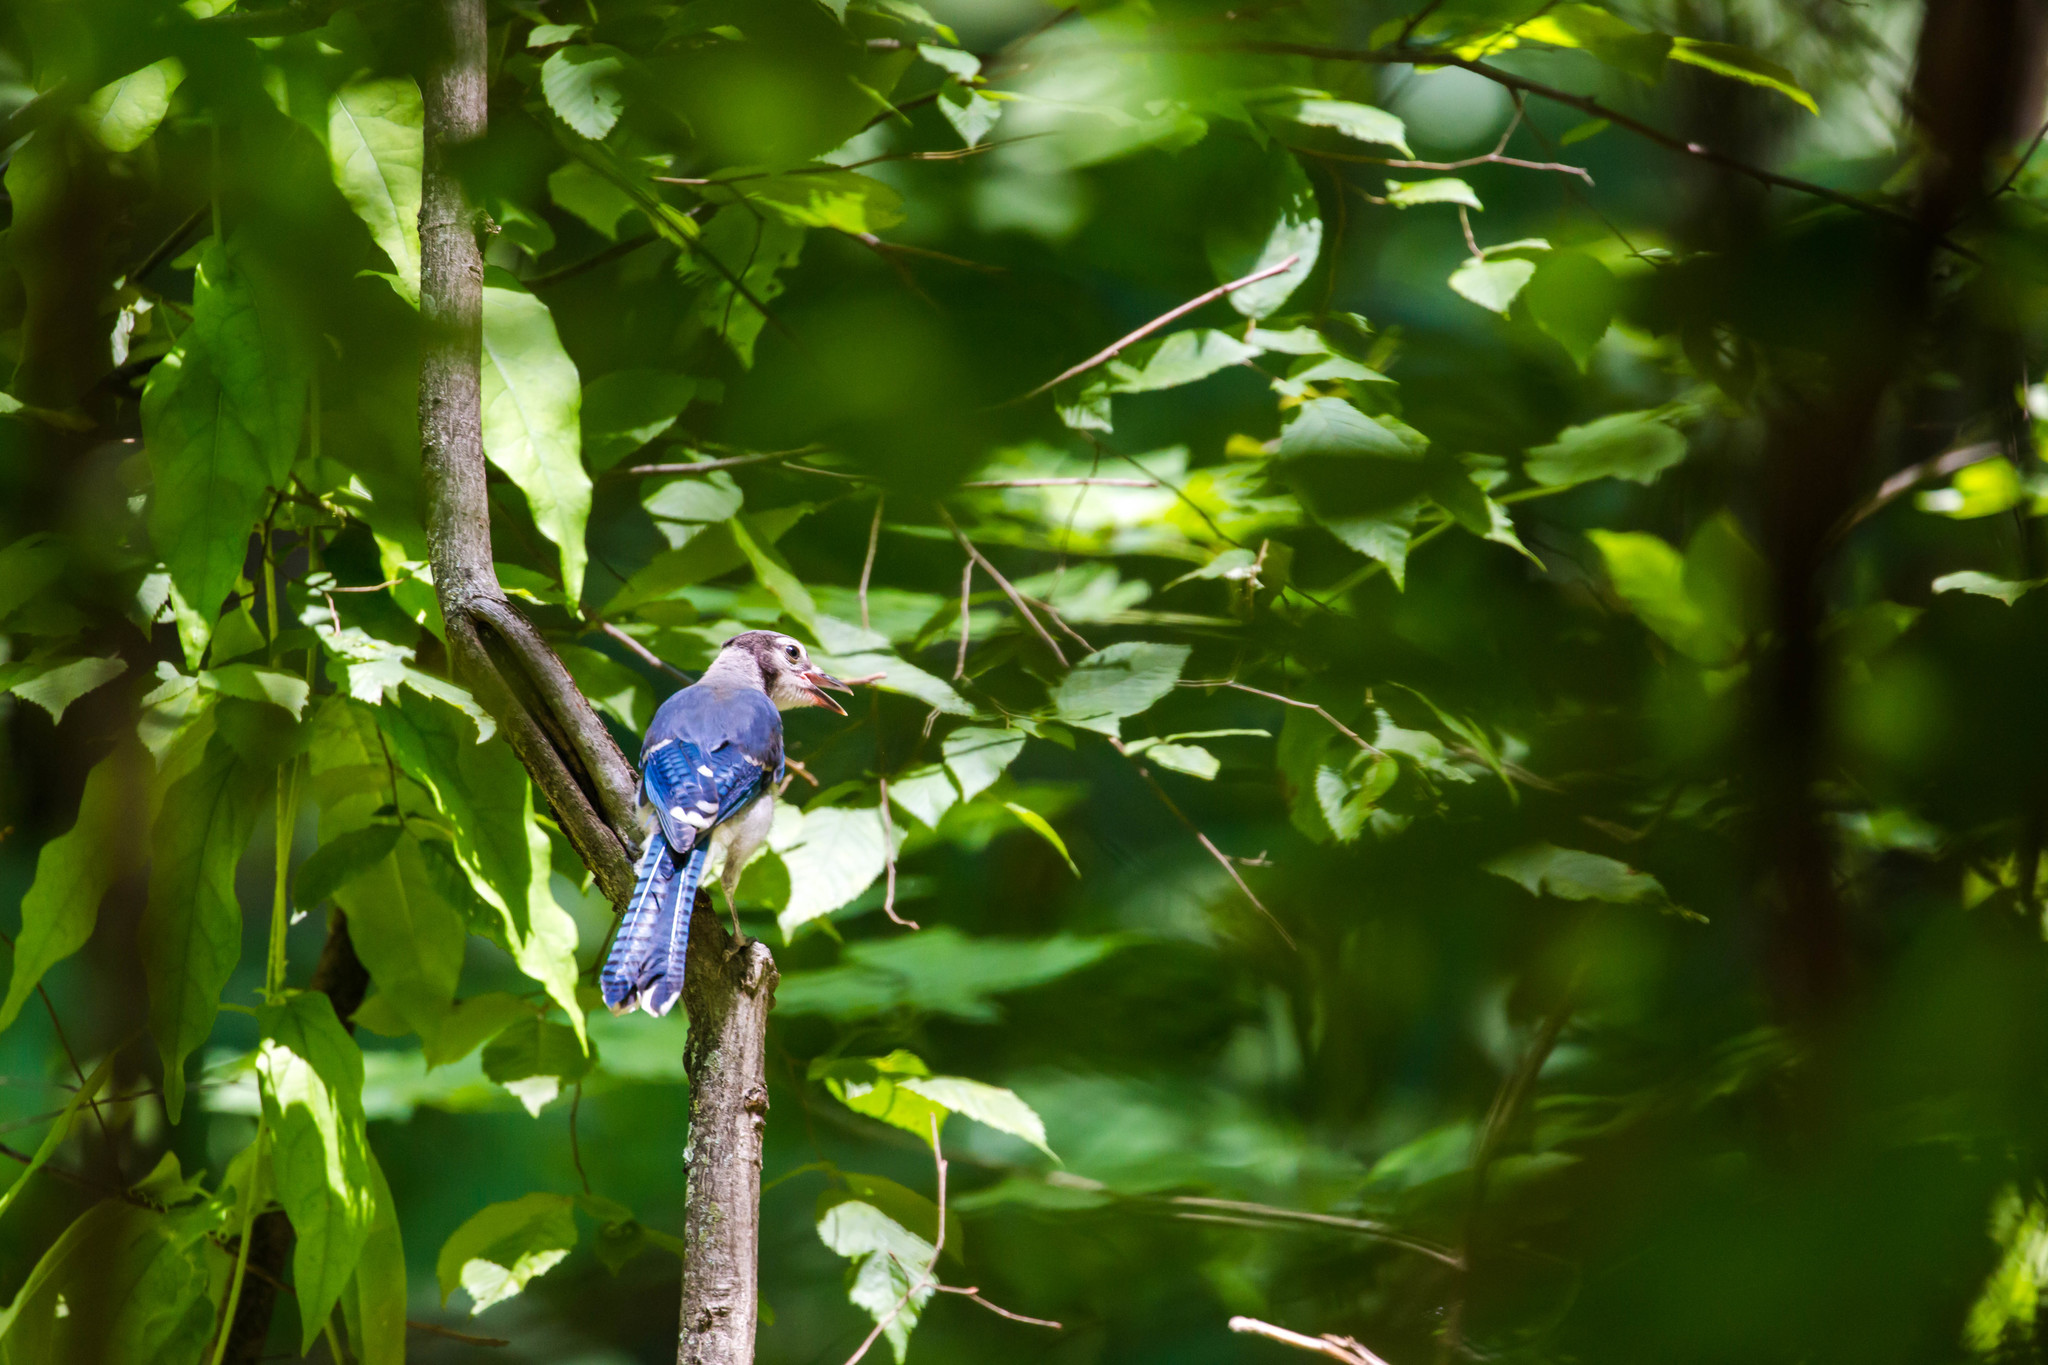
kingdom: Animalia
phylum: Chordata
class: Aves
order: Passeriformes
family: Corvidae
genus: Cyanocitta
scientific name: Cyanocitta cristata
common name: Blue jay
